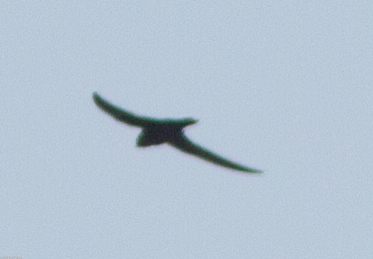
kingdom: Animalia
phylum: Chordata
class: Aves
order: Apodiformes
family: Apodidae
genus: Cypseloides
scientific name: Cypseloides niger
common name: Black swift
